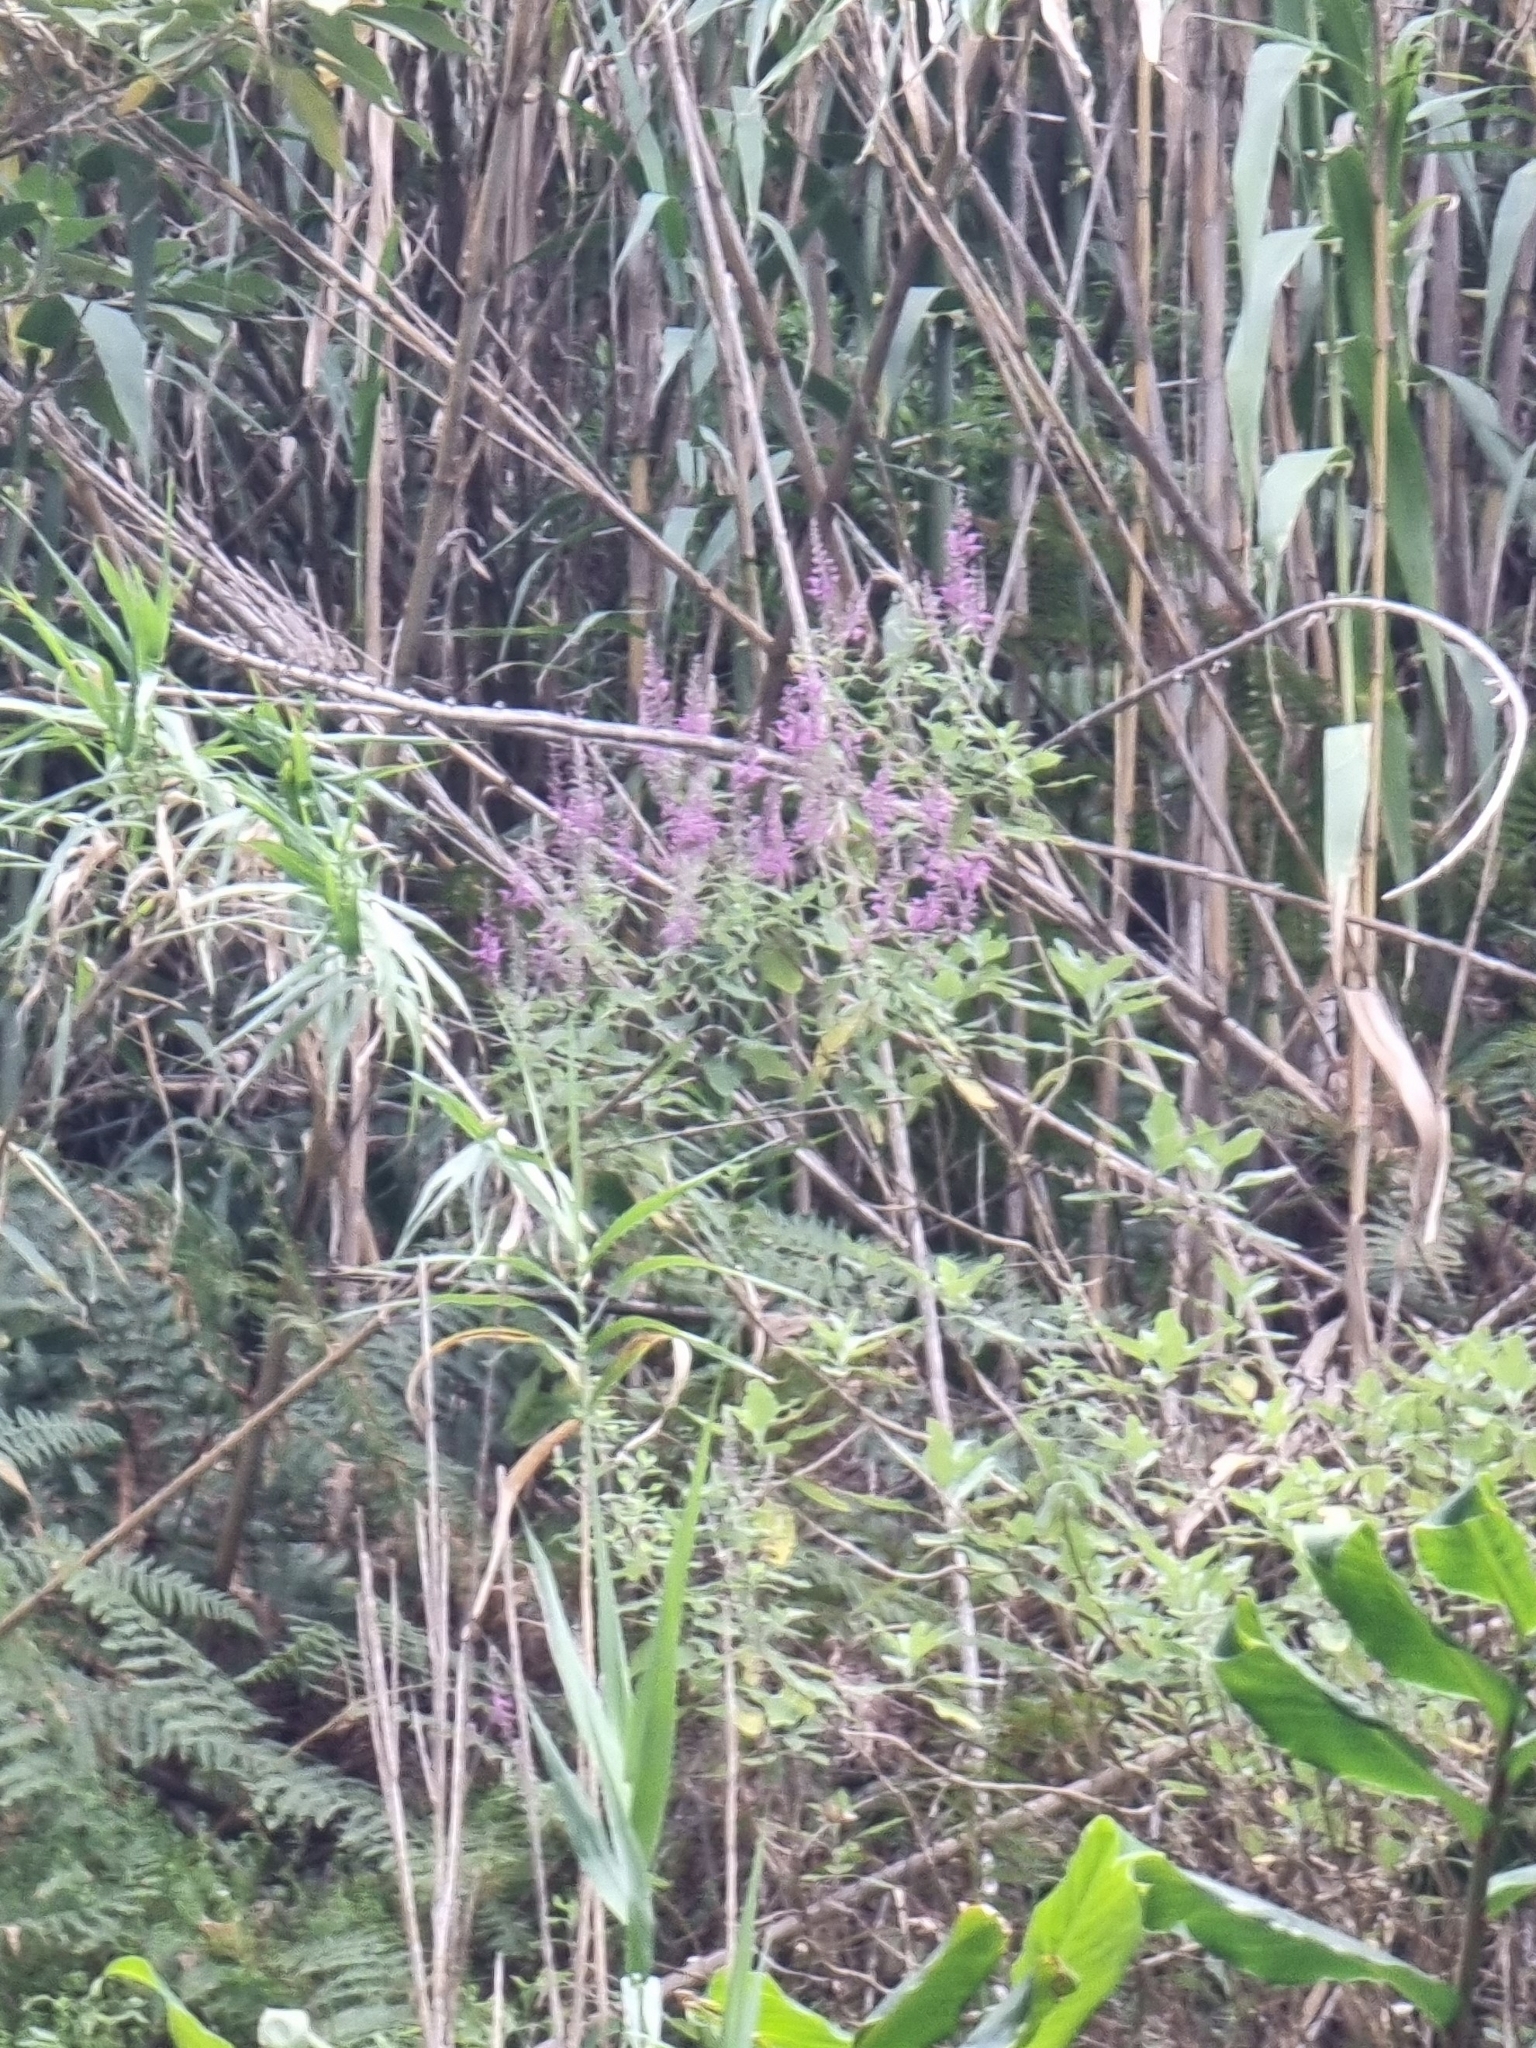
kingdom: Plantae
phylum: Tracheophyta
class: Magnoliopsida
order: Lamiales
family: Lamiaceae
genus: Teucrium
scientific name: Teucrium betonicum
